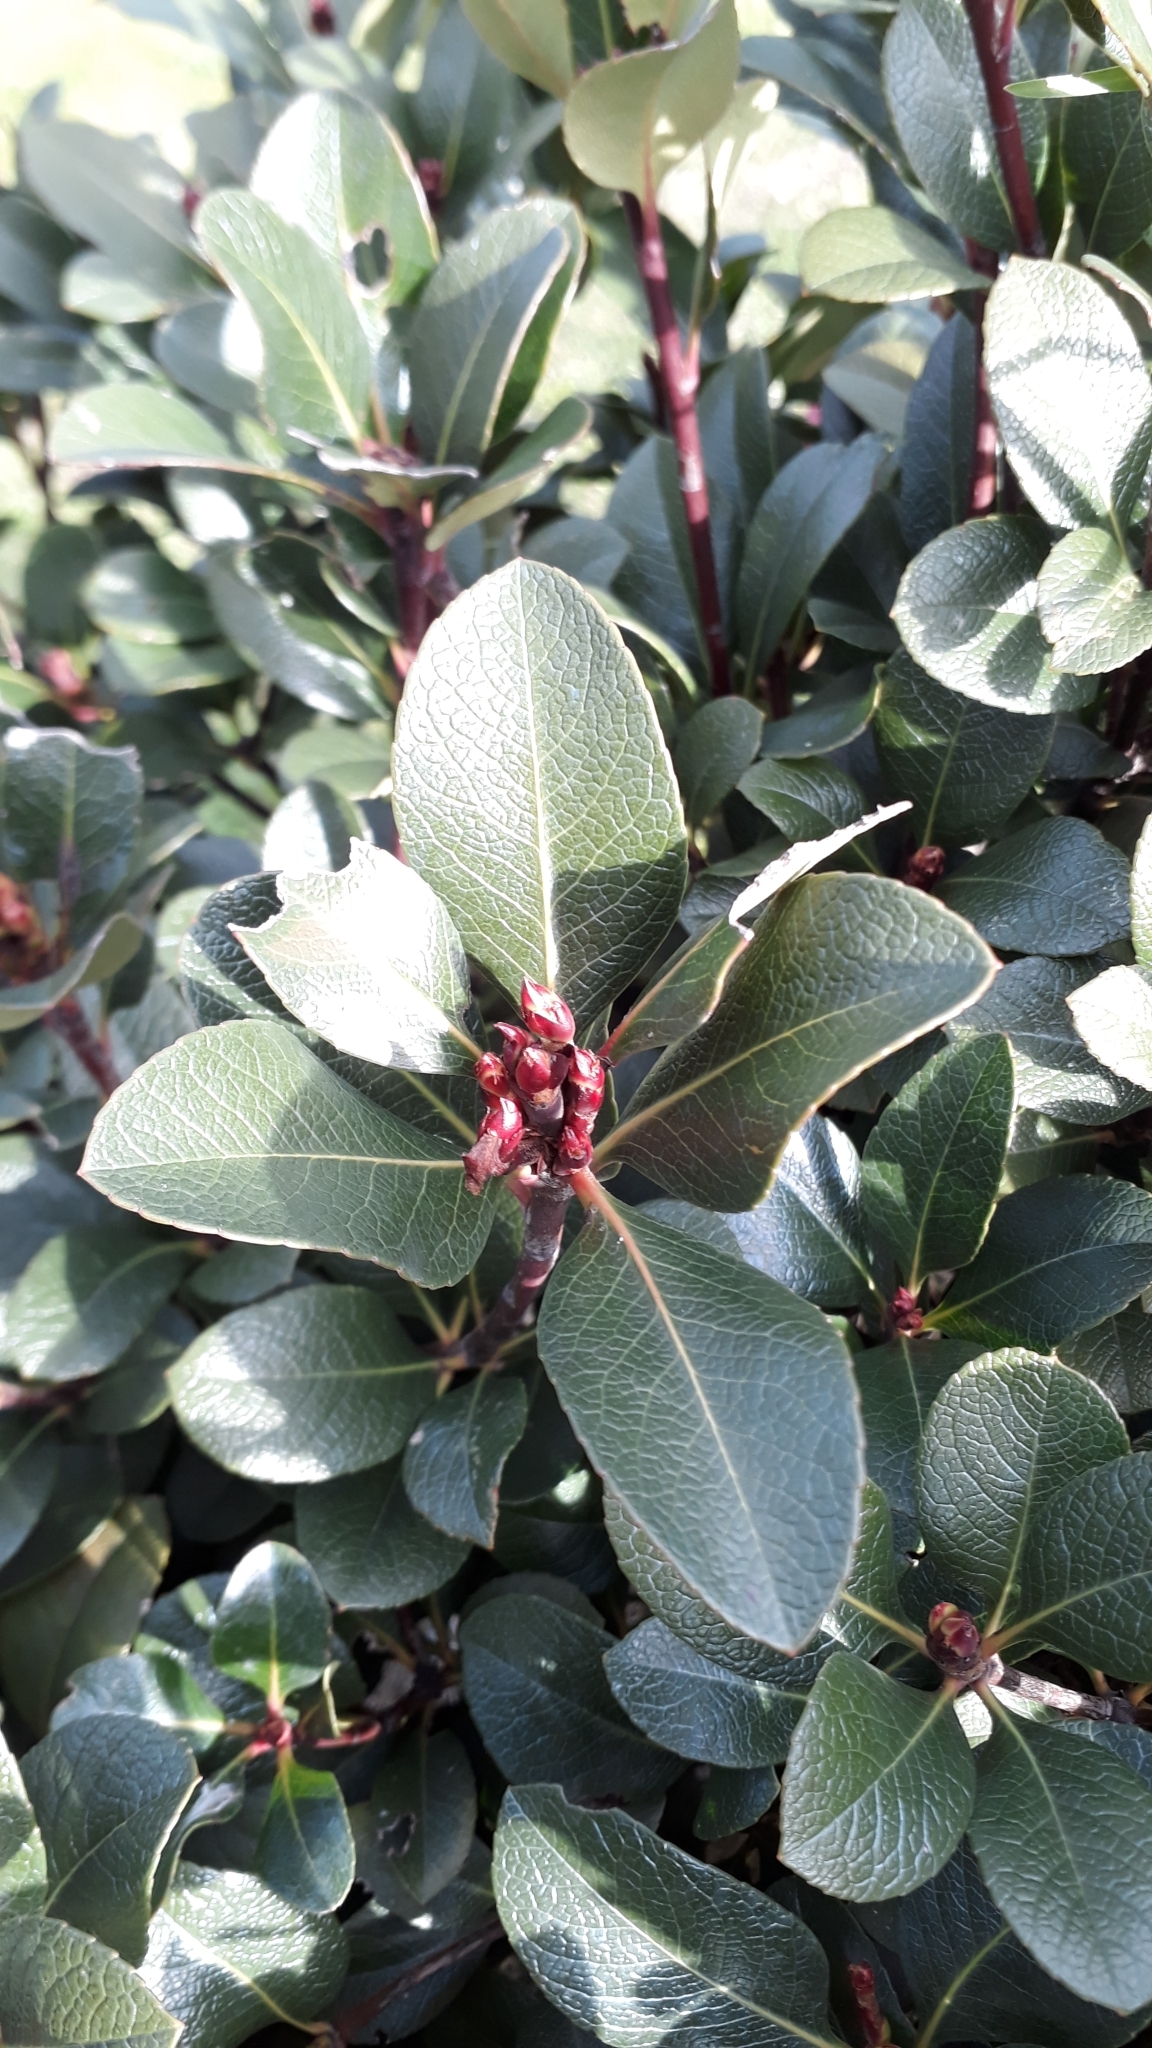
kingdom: Plantae
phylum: Tracheophyta
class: Magnoliopsida
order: Rosales
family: Rosaceae
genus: Rhaphiolepis
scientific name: Rhaphiolepis indica
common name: India-hawthorn
